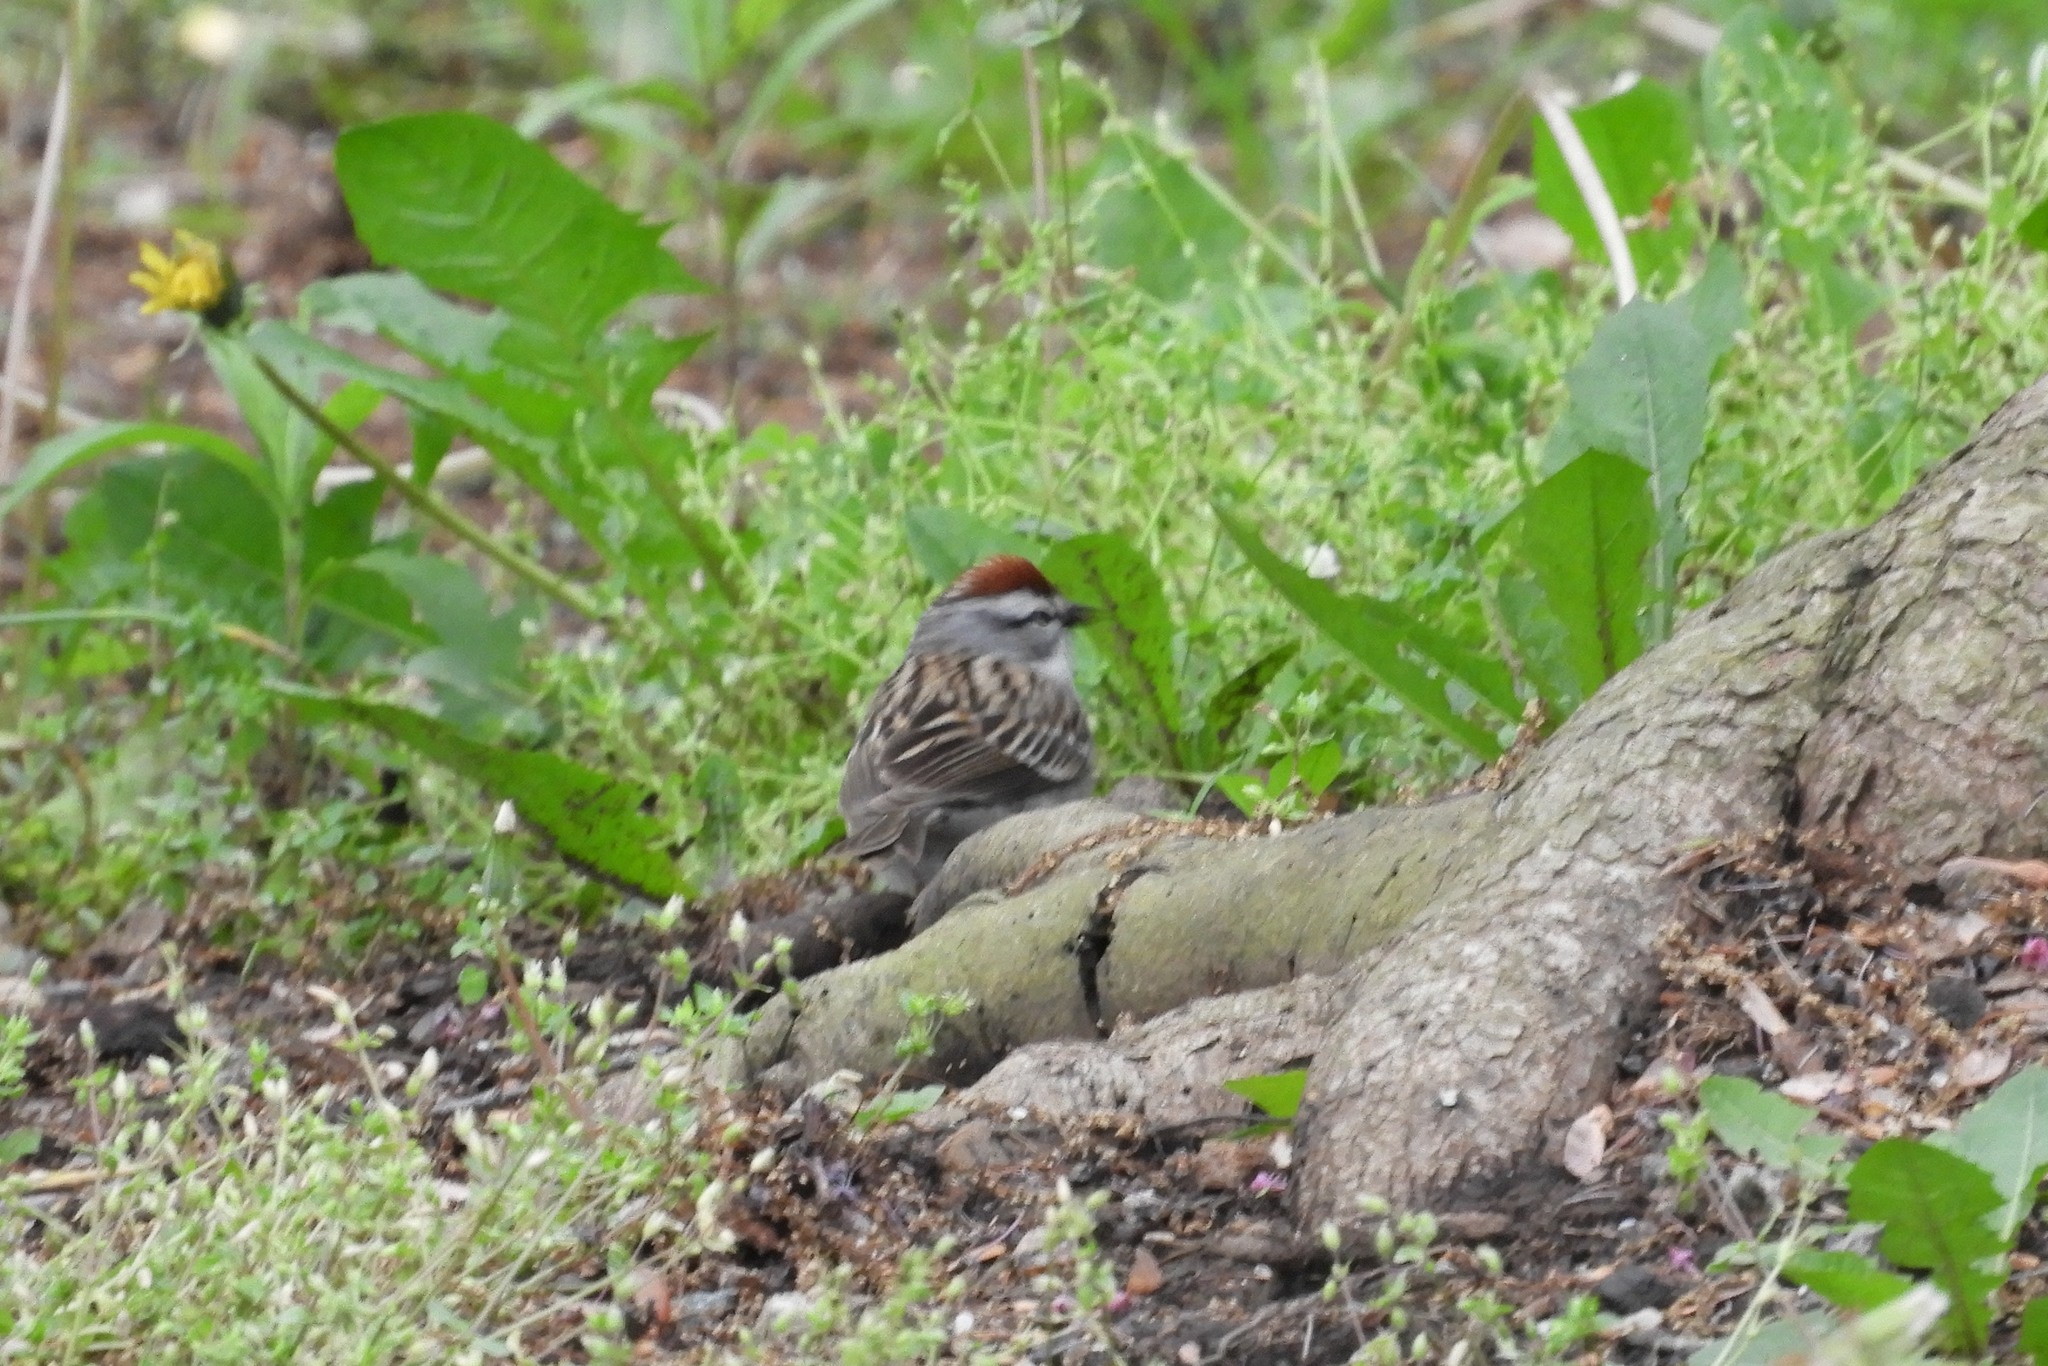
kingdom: Animalia
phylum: Chordata
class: Aves
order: Passeriformes
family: Passerellidae
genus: Spizella
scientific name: Spizella passerina
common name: Chipping sparrow
